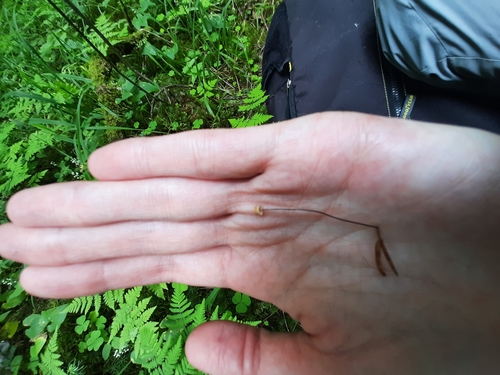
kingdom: Fungi
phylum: Basidiomycota
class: Agaricomycetes
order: Agaricales
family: Omphalotaceae
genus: Gymnopus
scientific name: Gymnopus androsaceus
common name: Horse-hair fungus
